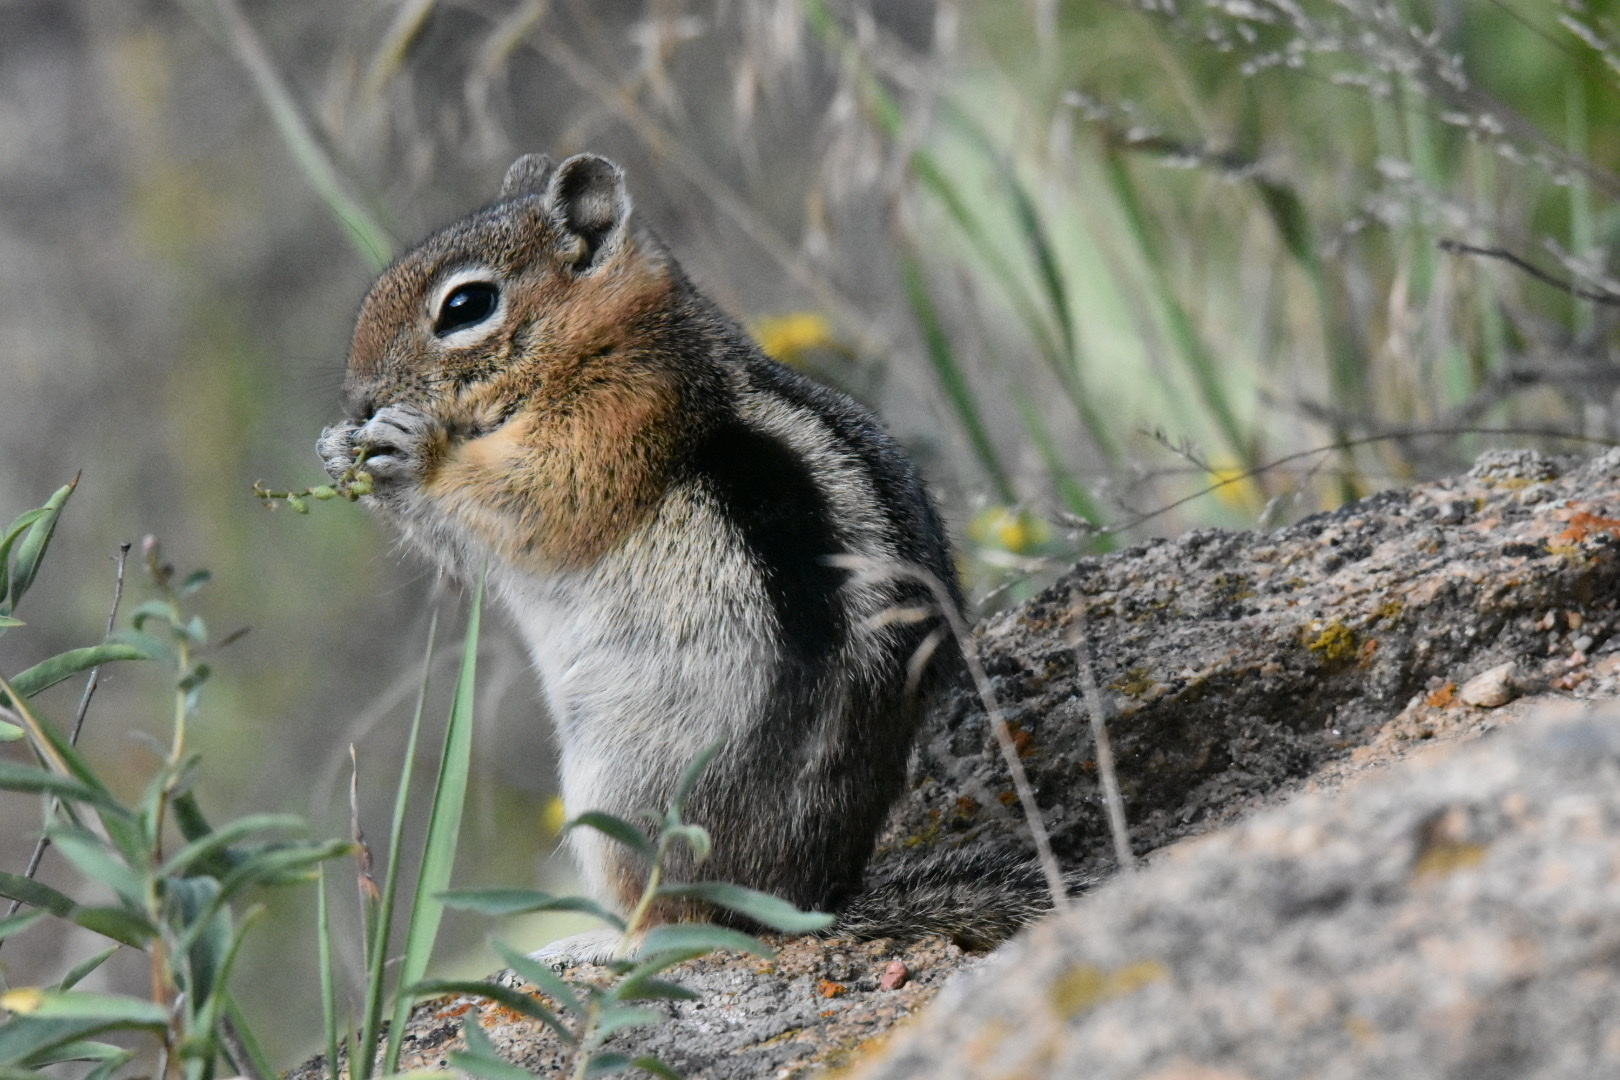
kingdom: Animalia
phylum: Chordata
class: Mammalia
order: Rodentia
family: Sciuridae
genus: Callospermophilus
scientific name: Callospermophilus lateralis
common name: Golden-mantled ground squirrel
